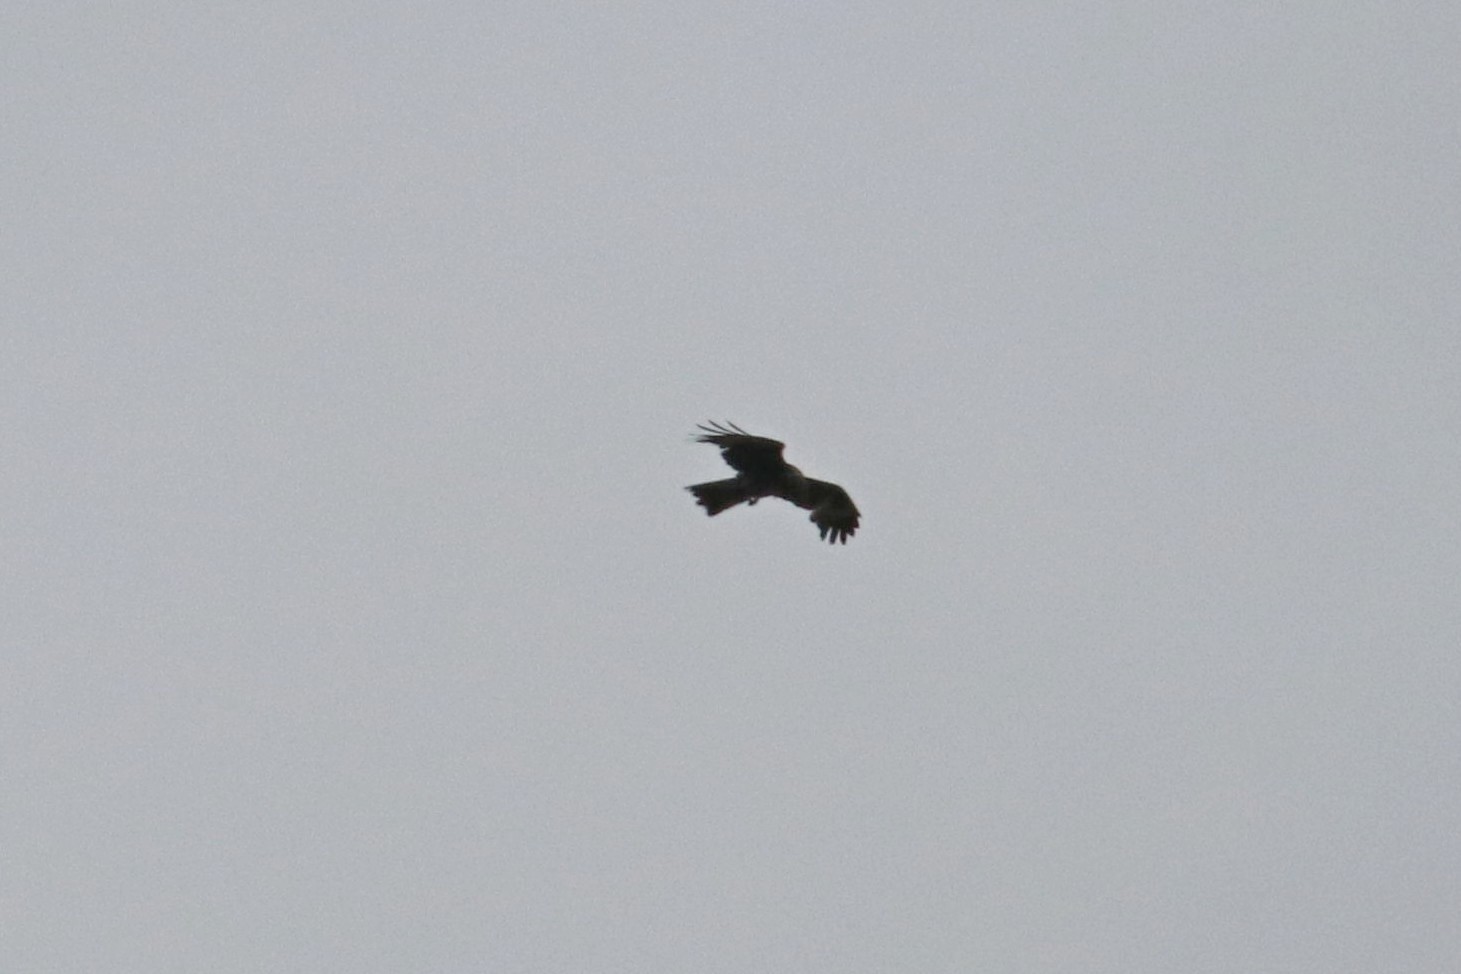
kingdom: Animalia
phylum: Chordata
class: Aves
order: Accipitriformes
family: Accipitridae
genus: Milvus
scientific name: Milvus migrans
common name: Black kite
